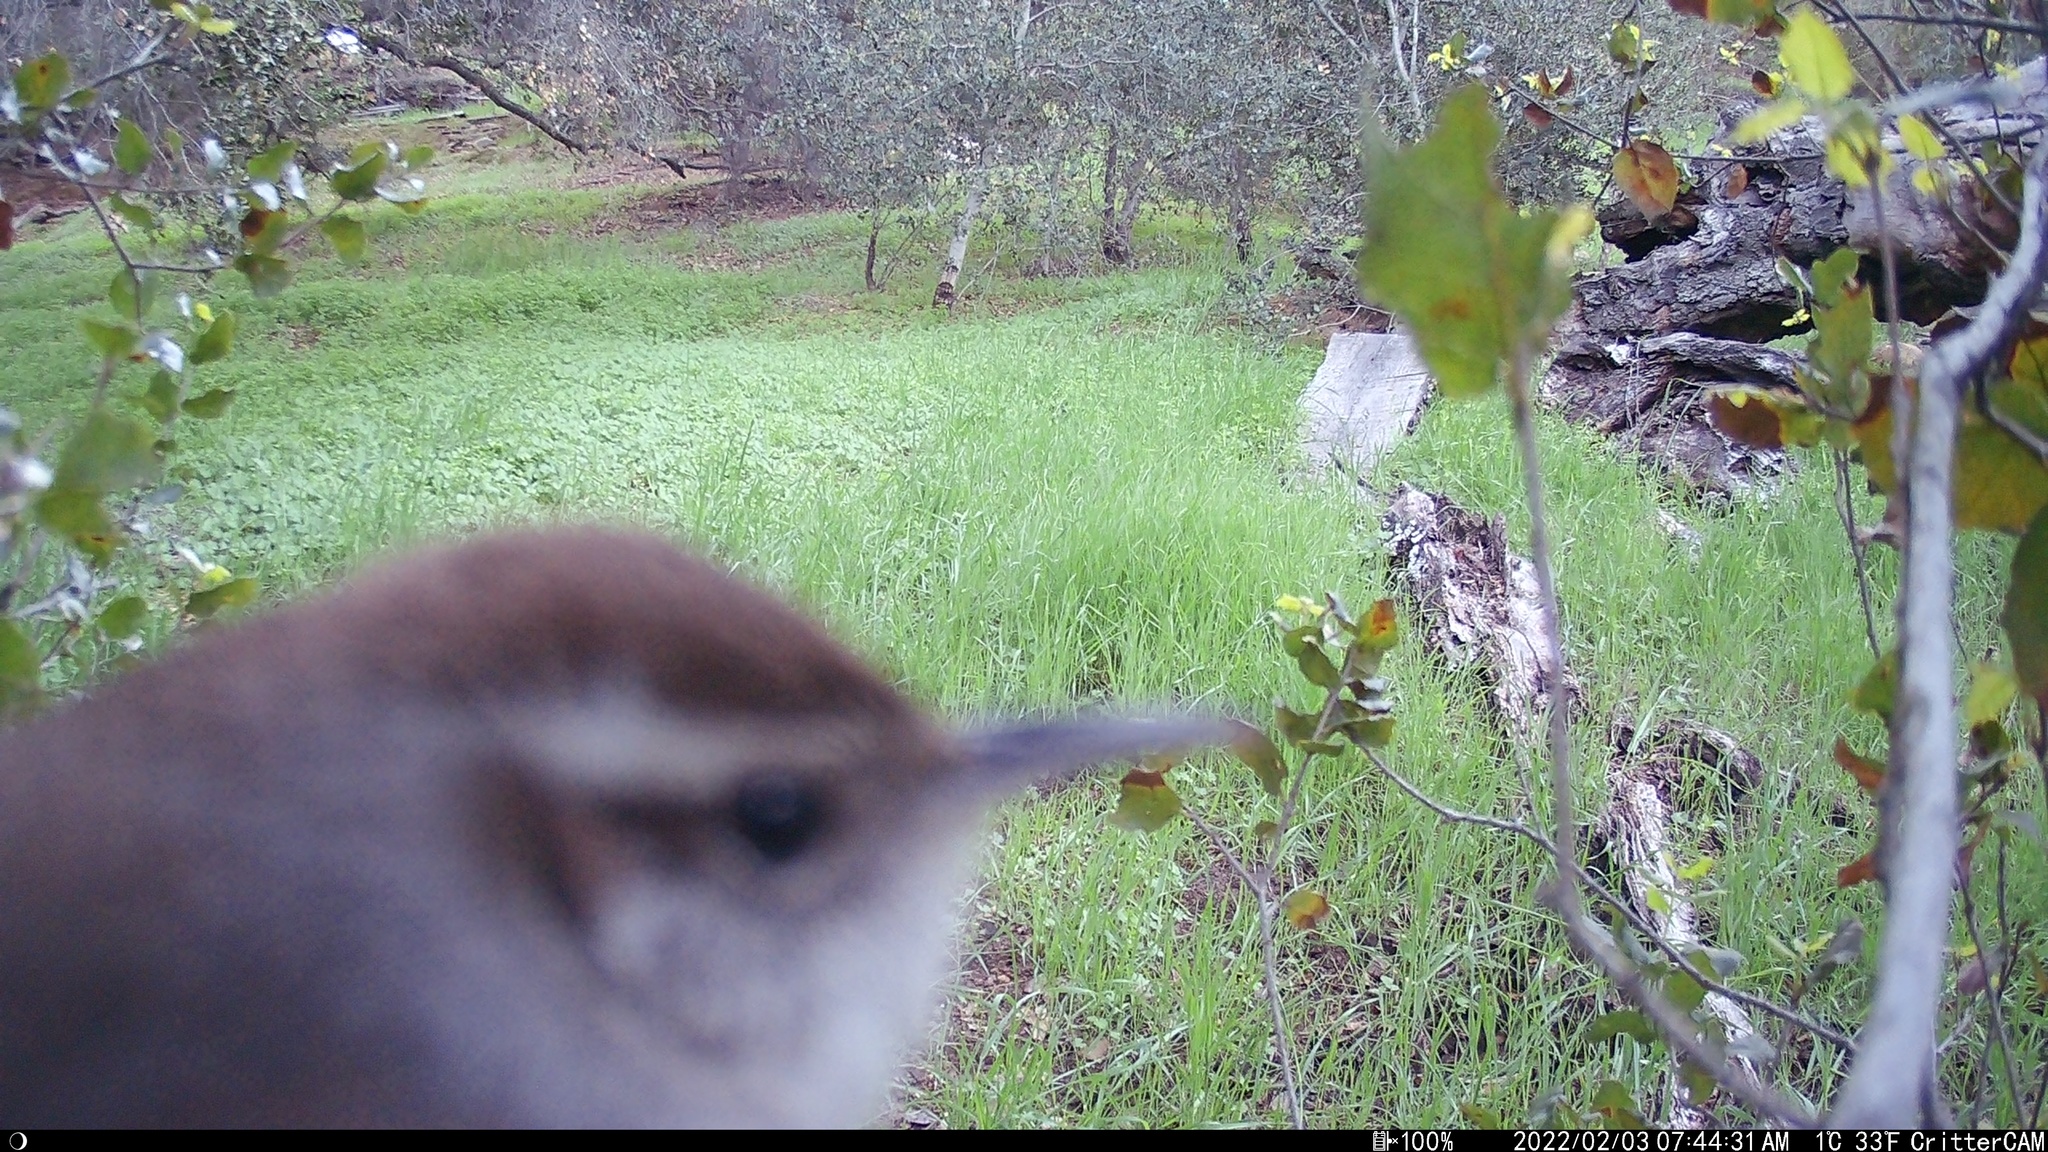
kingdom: Animalia
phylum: Chordata
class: Aves
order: Passeriformes
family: Troglodytidae
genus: Thryomanes
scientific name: Thryomanes bewickii
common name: Bewick's wren
